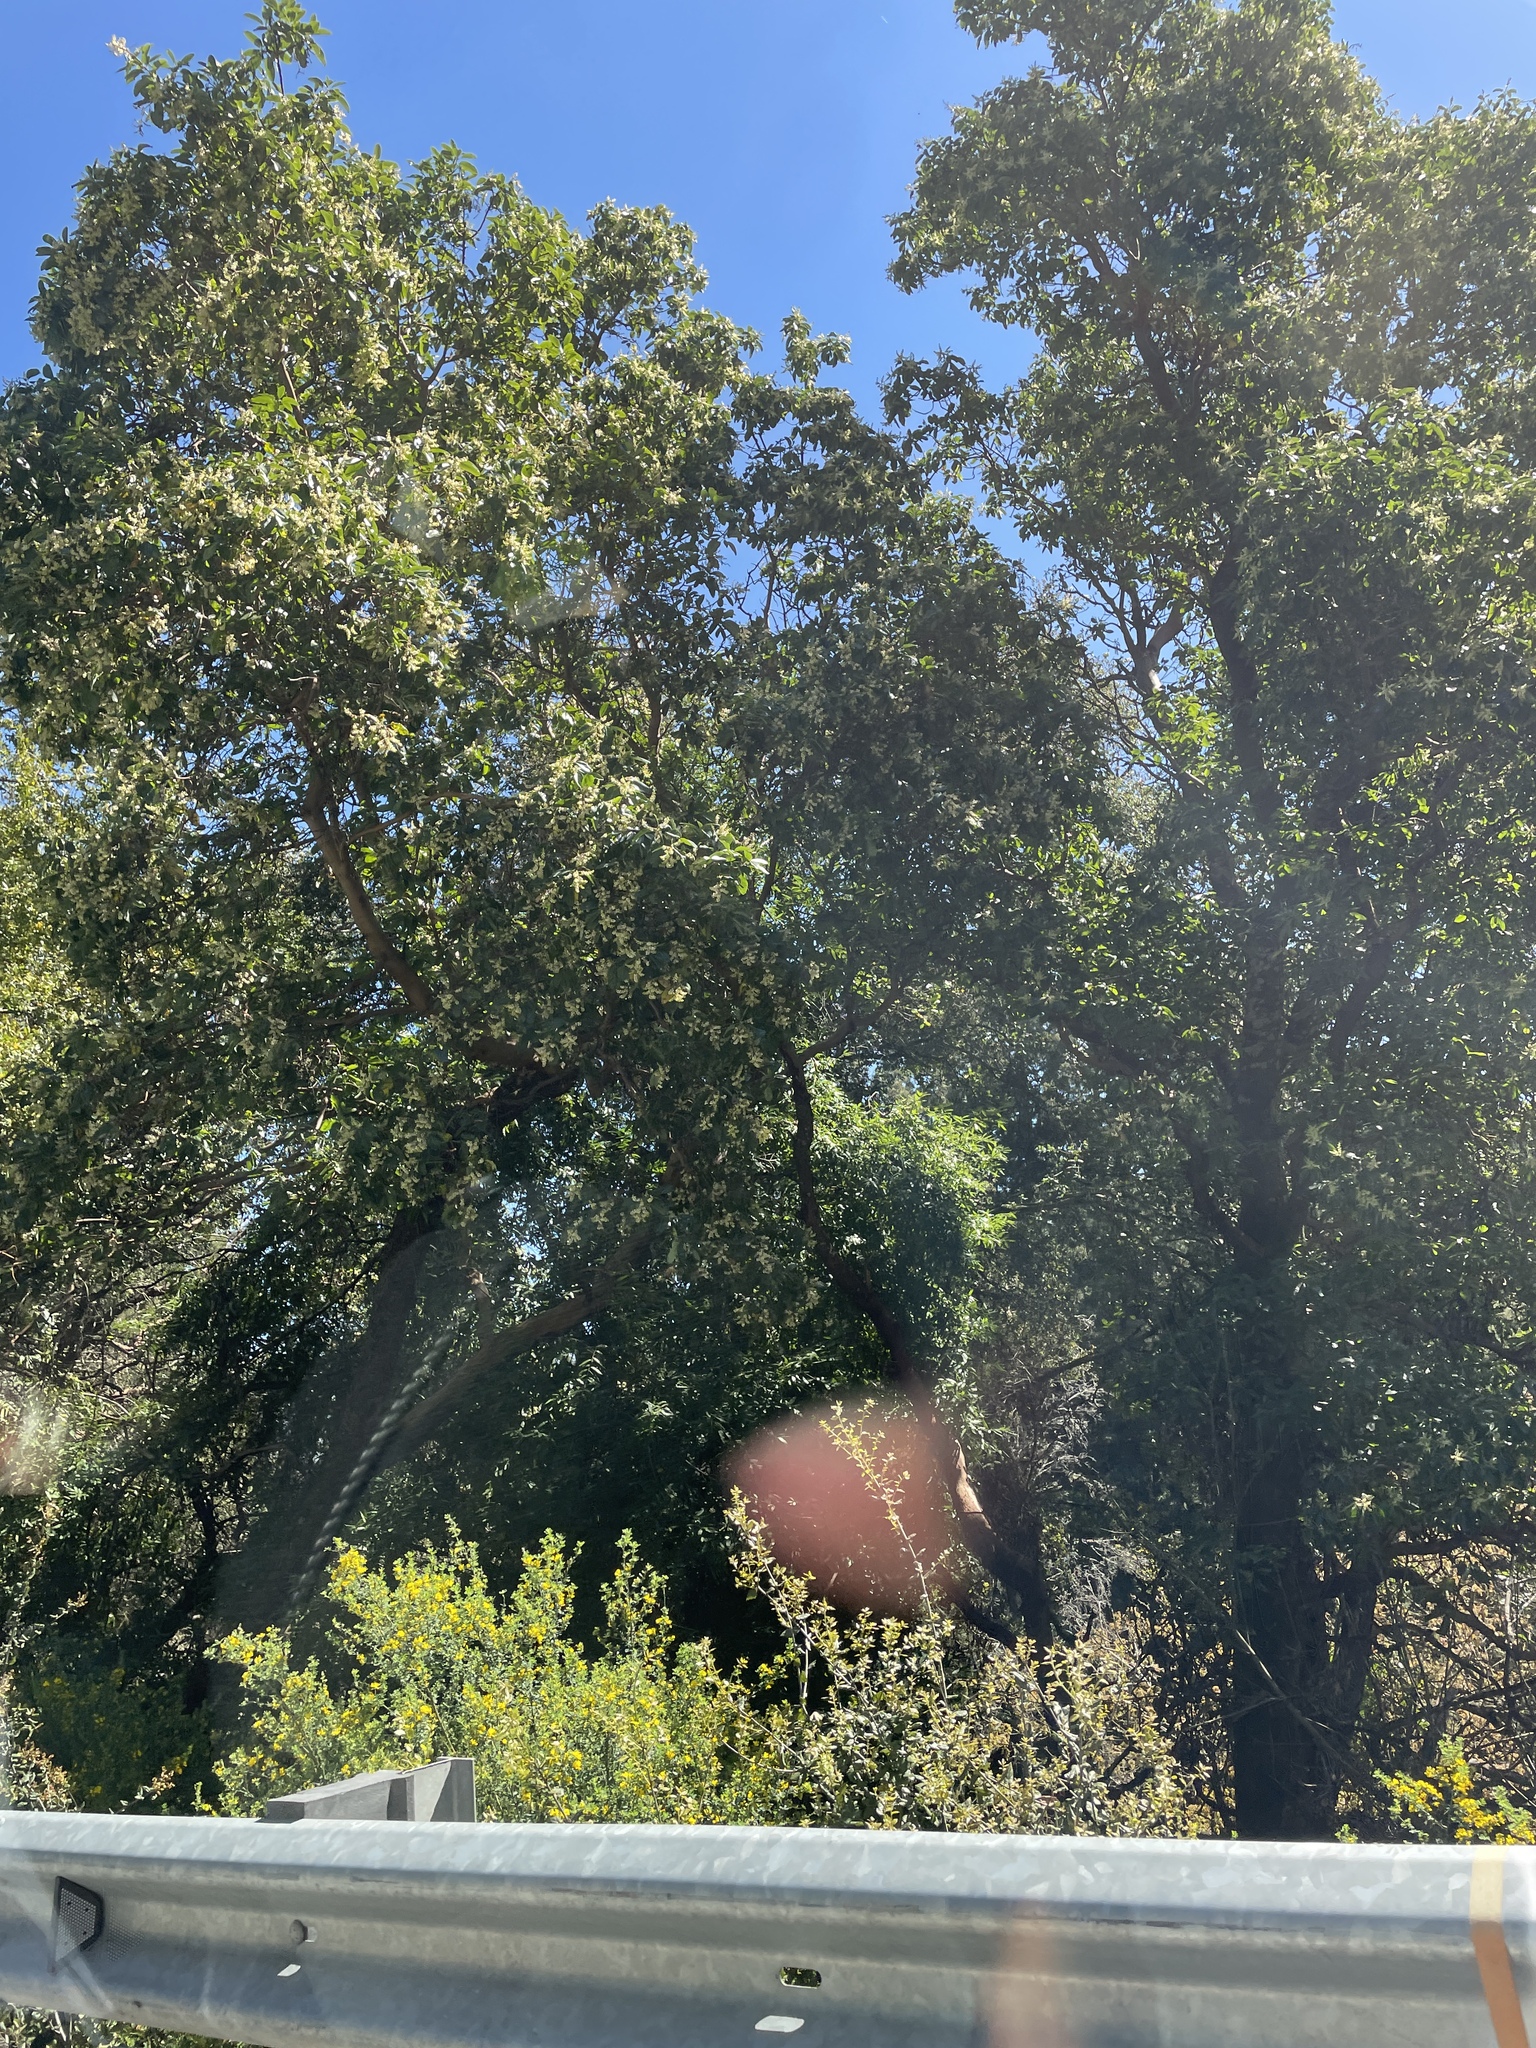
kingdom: Plantae
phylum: Tracheophyta
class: Magnoliopsida
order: Ericales
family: Ericaceae
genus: Arbutus
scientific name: Arbutus menziesii
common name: Pacific madrone
